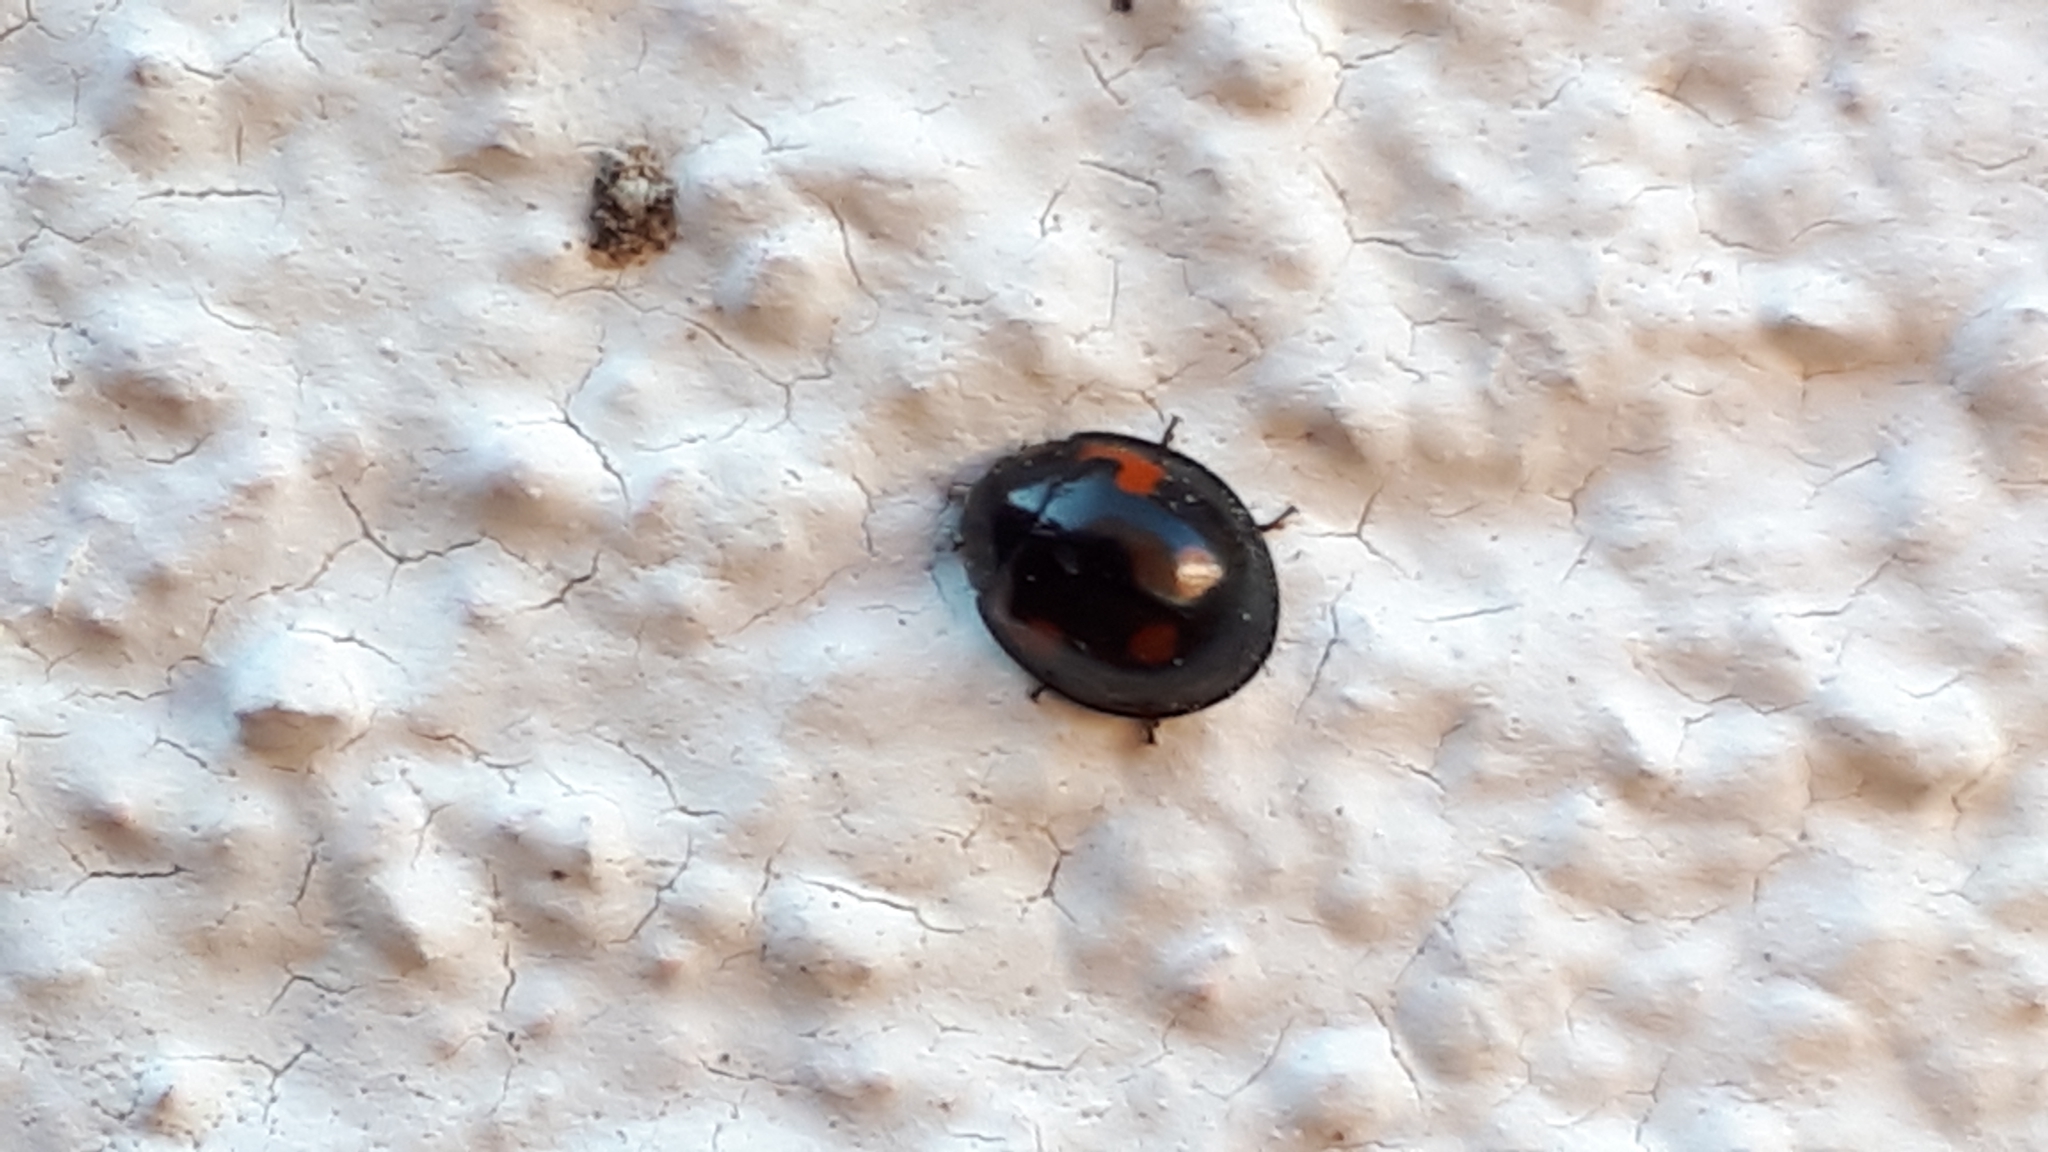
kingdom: Animalia
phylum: Arthropoda
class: Insecta
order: Coleoptera
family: Coccinellidae
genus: Brumus
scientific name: Brumus quadripustulatus
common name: Ladybird beetle
